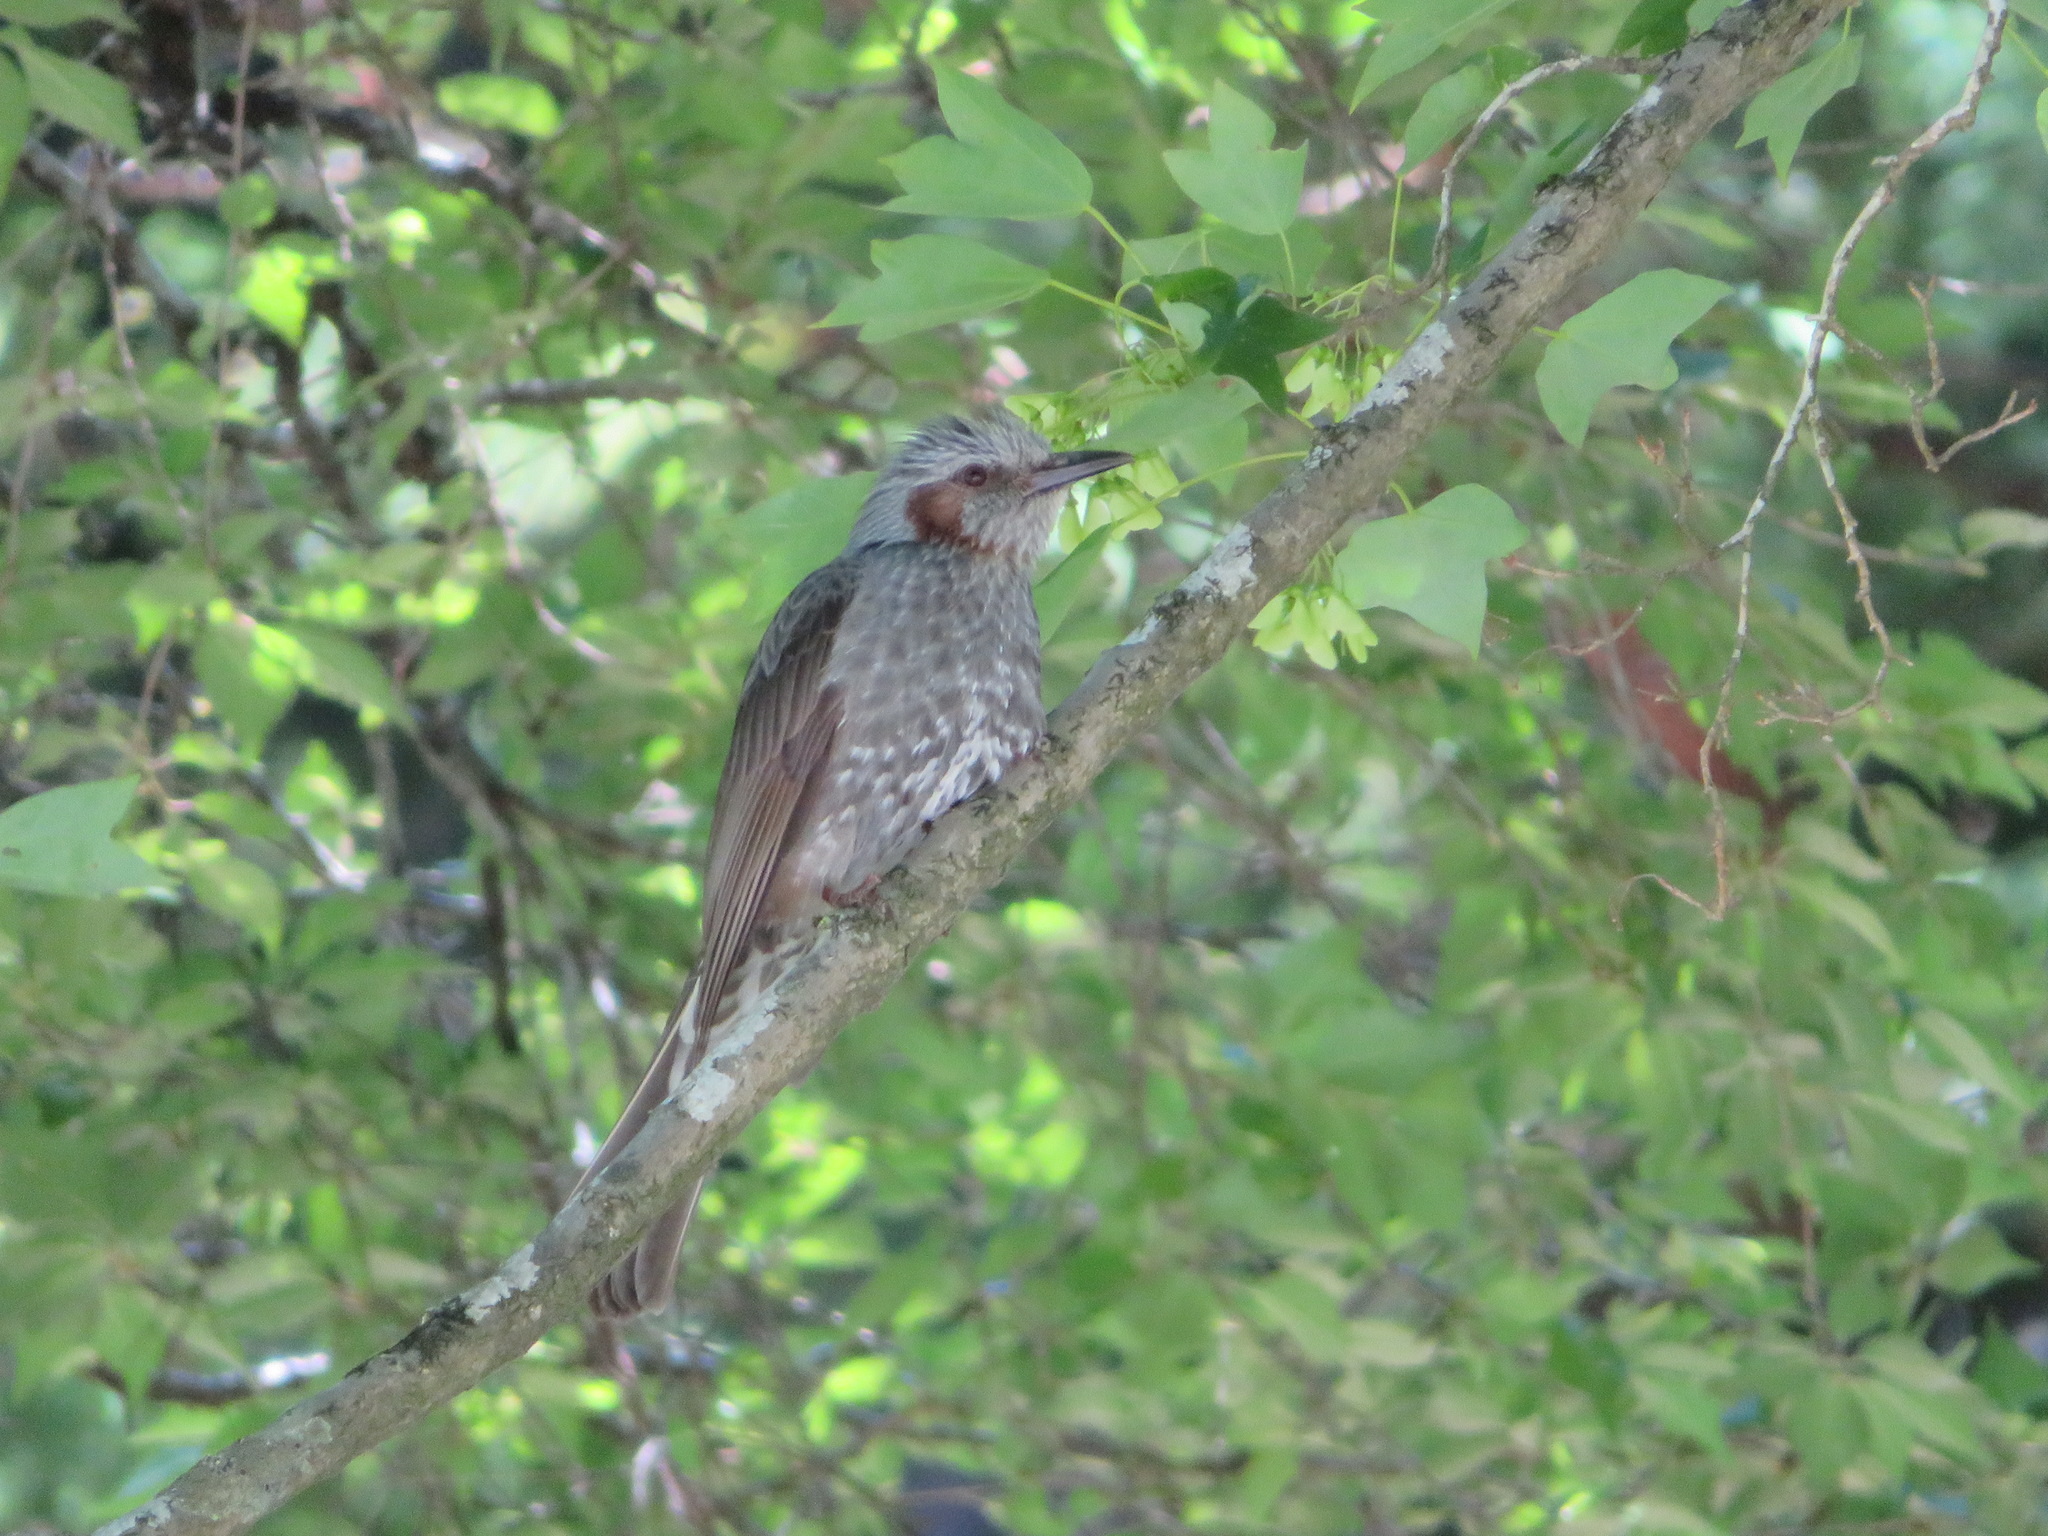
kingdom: Animalia
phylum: Chordata
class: Aves
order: Passeriformes
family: Pycnonotidae
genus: Hypsipetes
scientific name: Hypsipetes amaurotis
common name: Brown-eared bulbul
